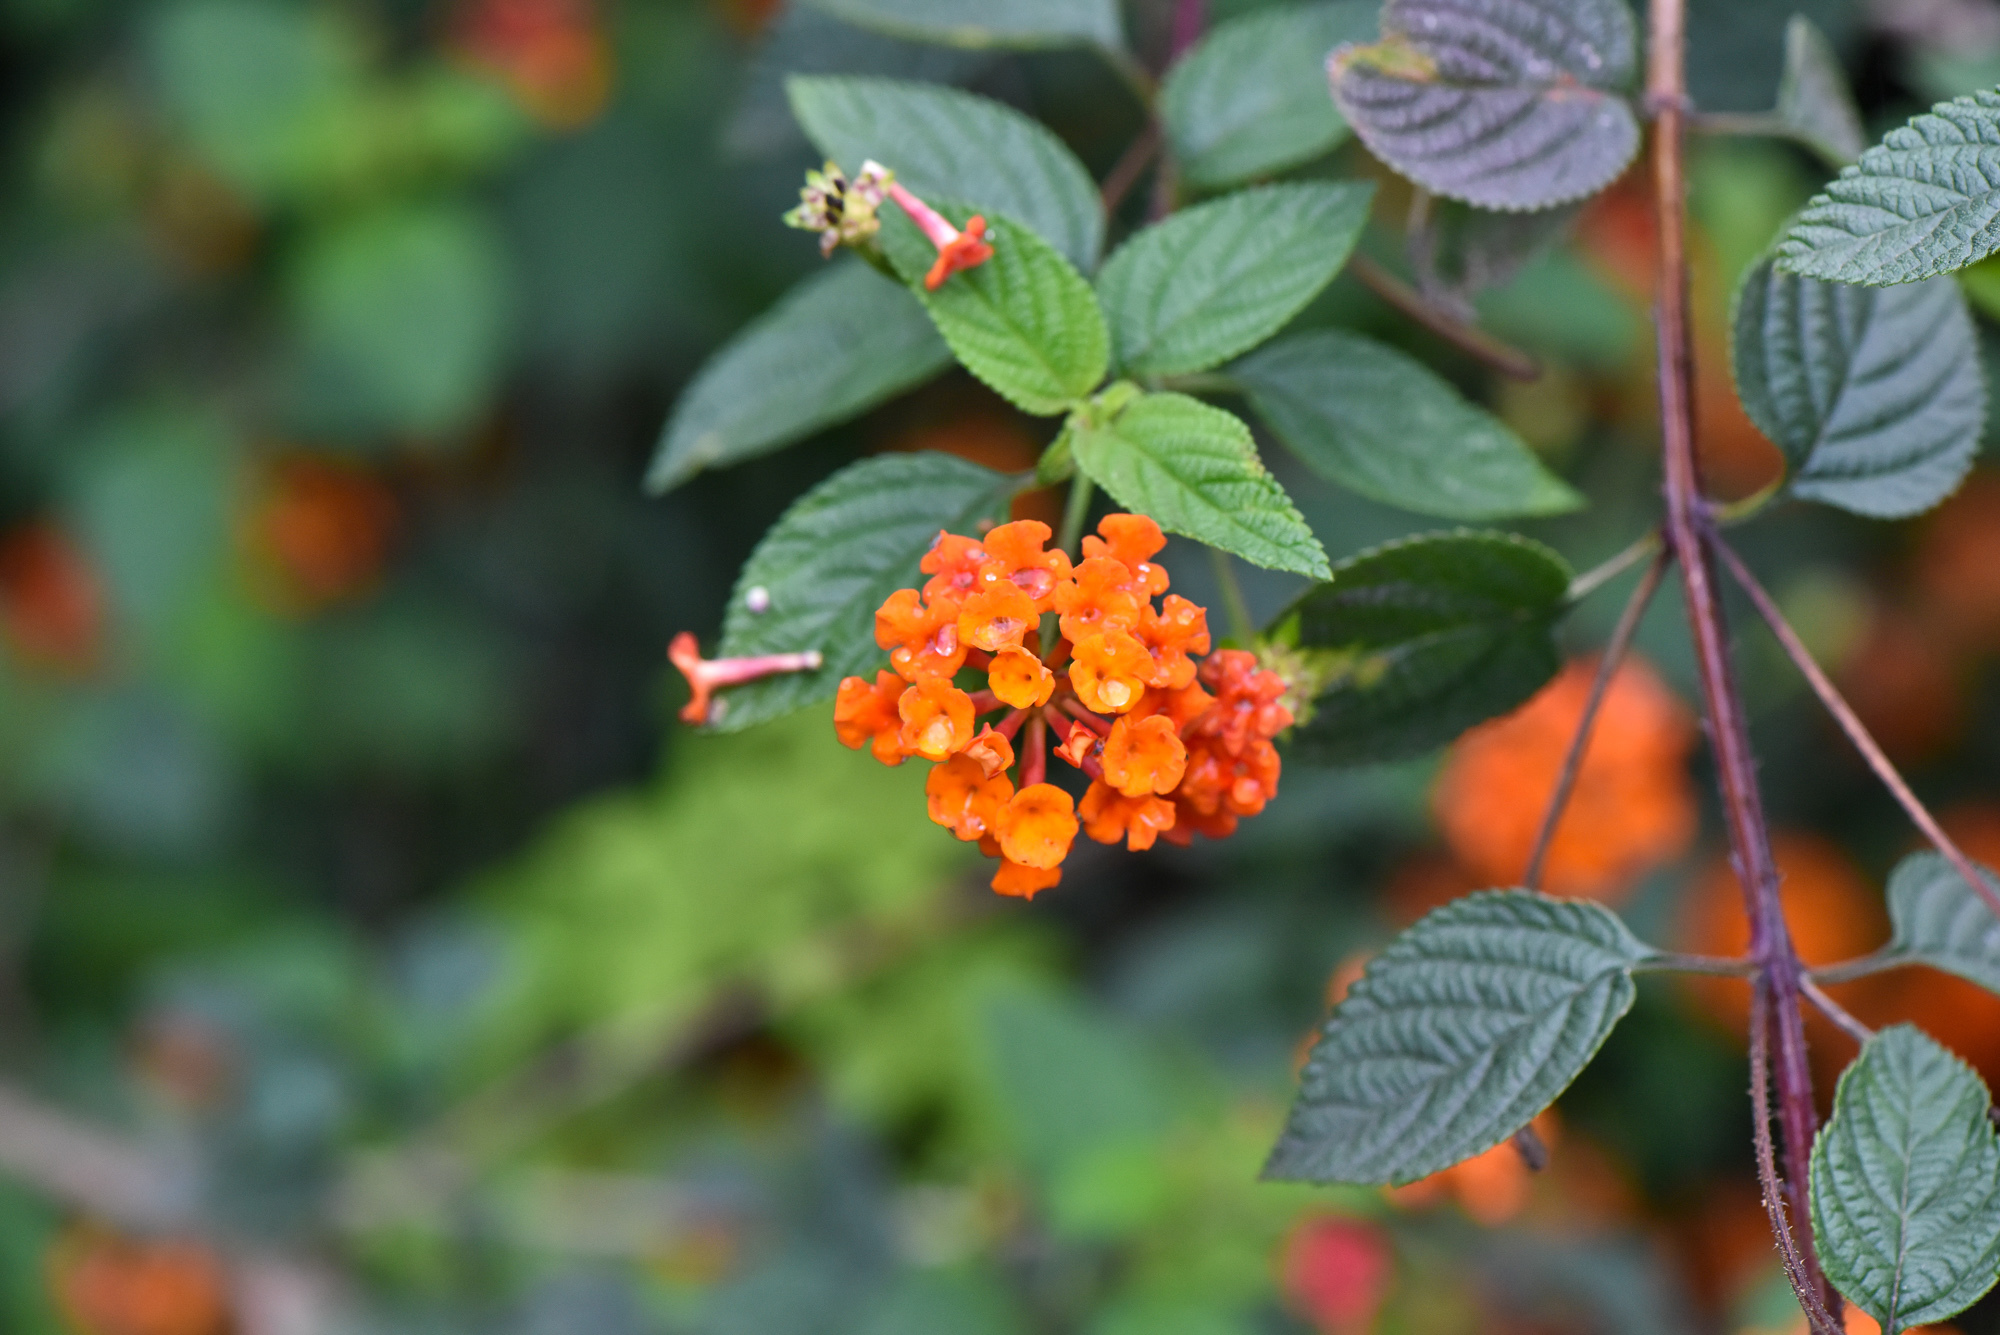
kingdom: Plantae
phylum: Tracheophyta
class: Magnoliopsida
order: Lamiales
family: Verbenaceae
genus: Lantana
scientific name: Lantana camara
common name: Lantana
